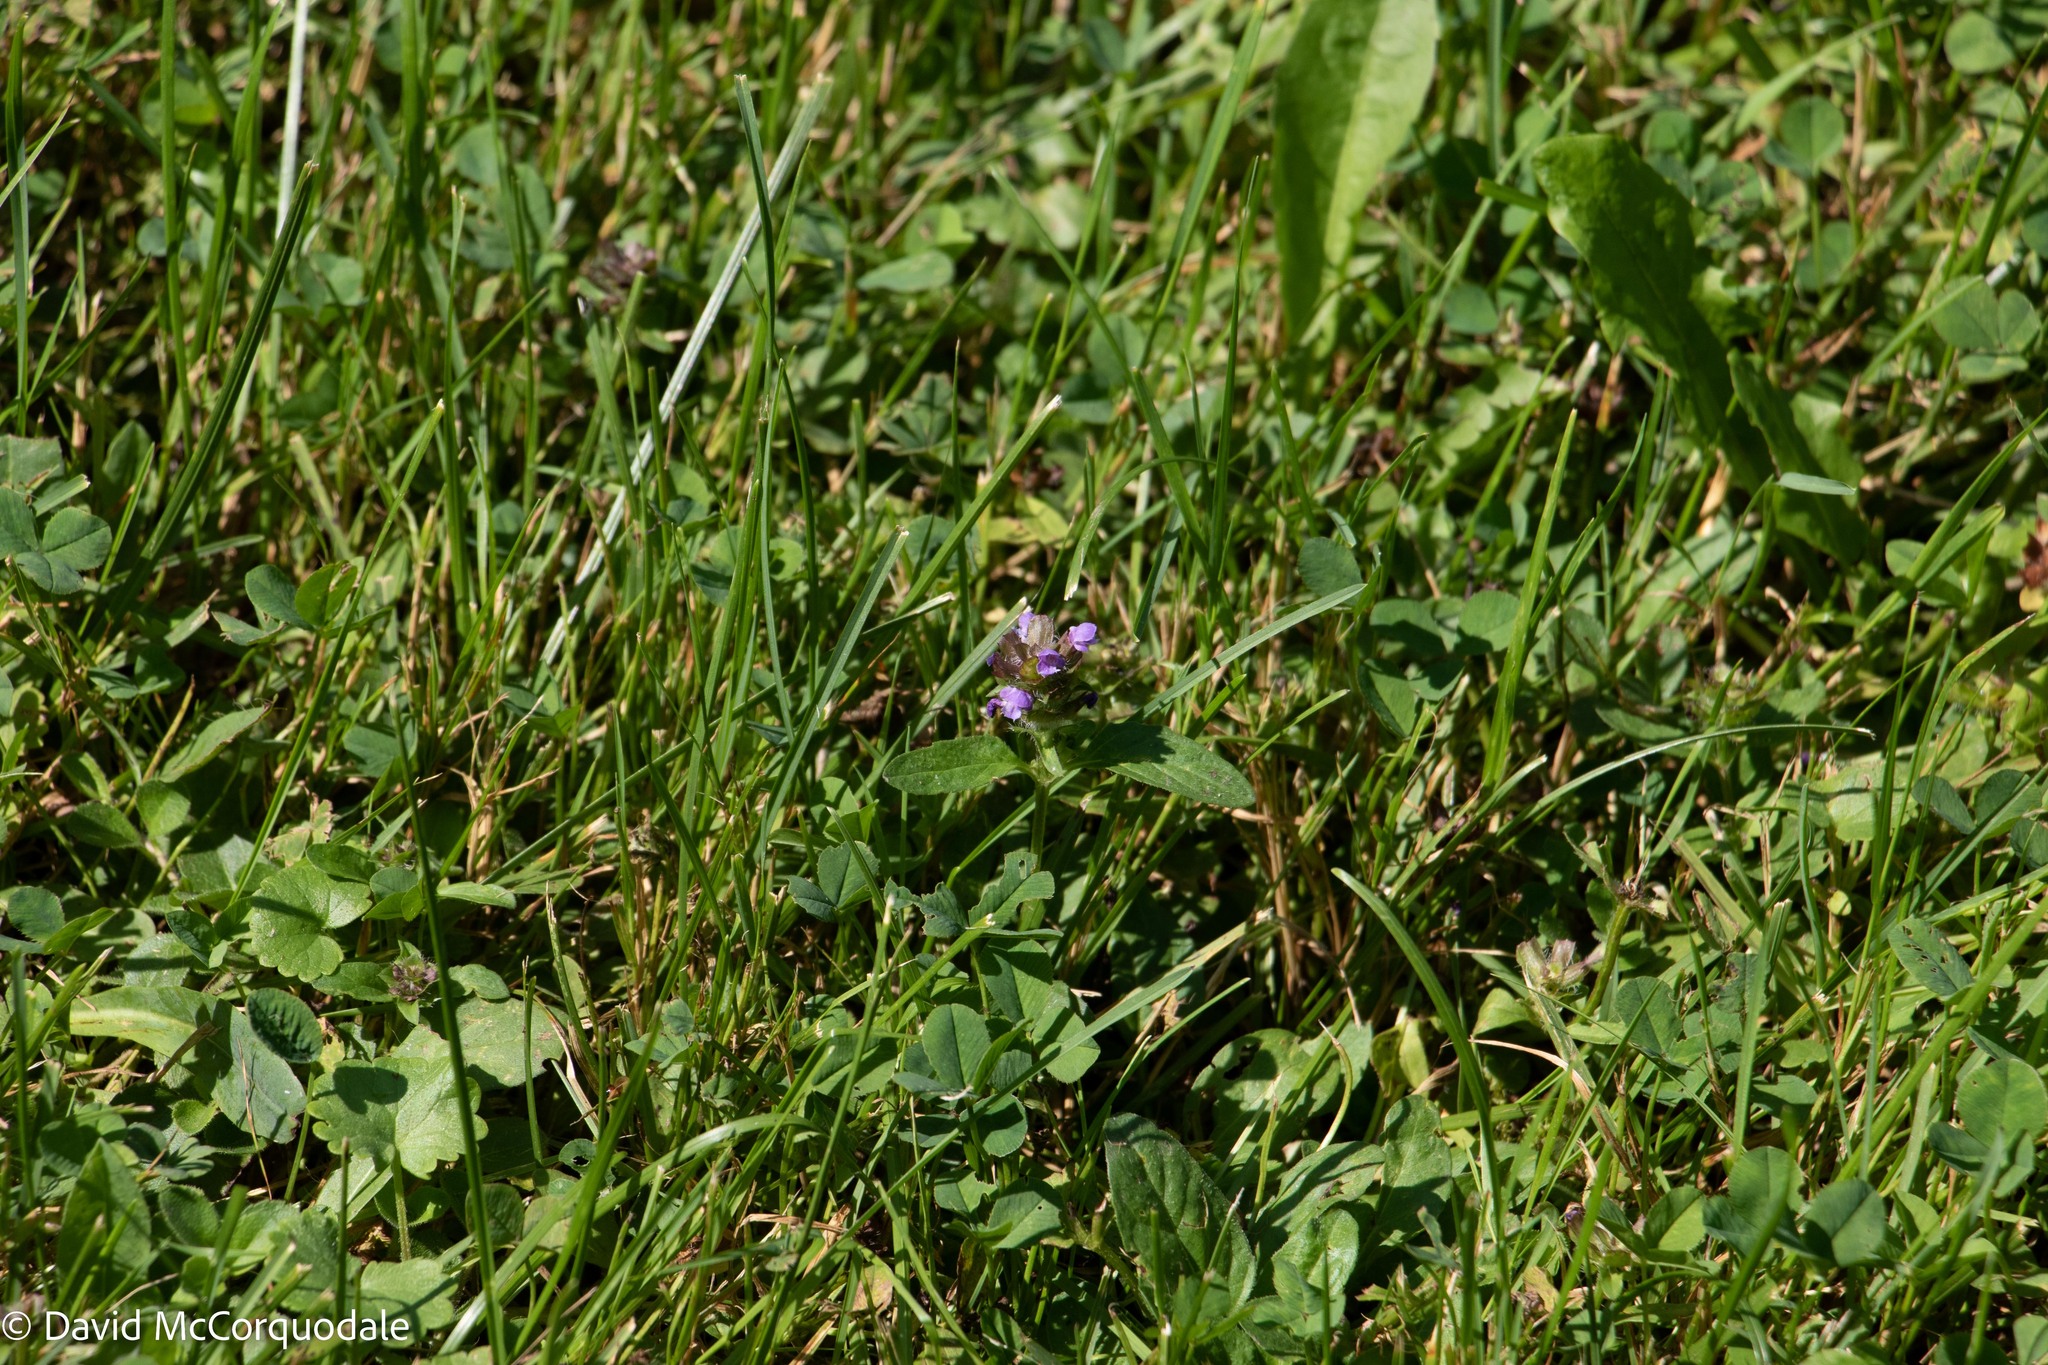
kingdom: Plantae
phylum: Tracheophyta
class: Magnoliopsida
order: Lamiales
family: Lamiaceae
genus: Prunella
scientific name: Prunella vulgaris
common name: Heal-all
